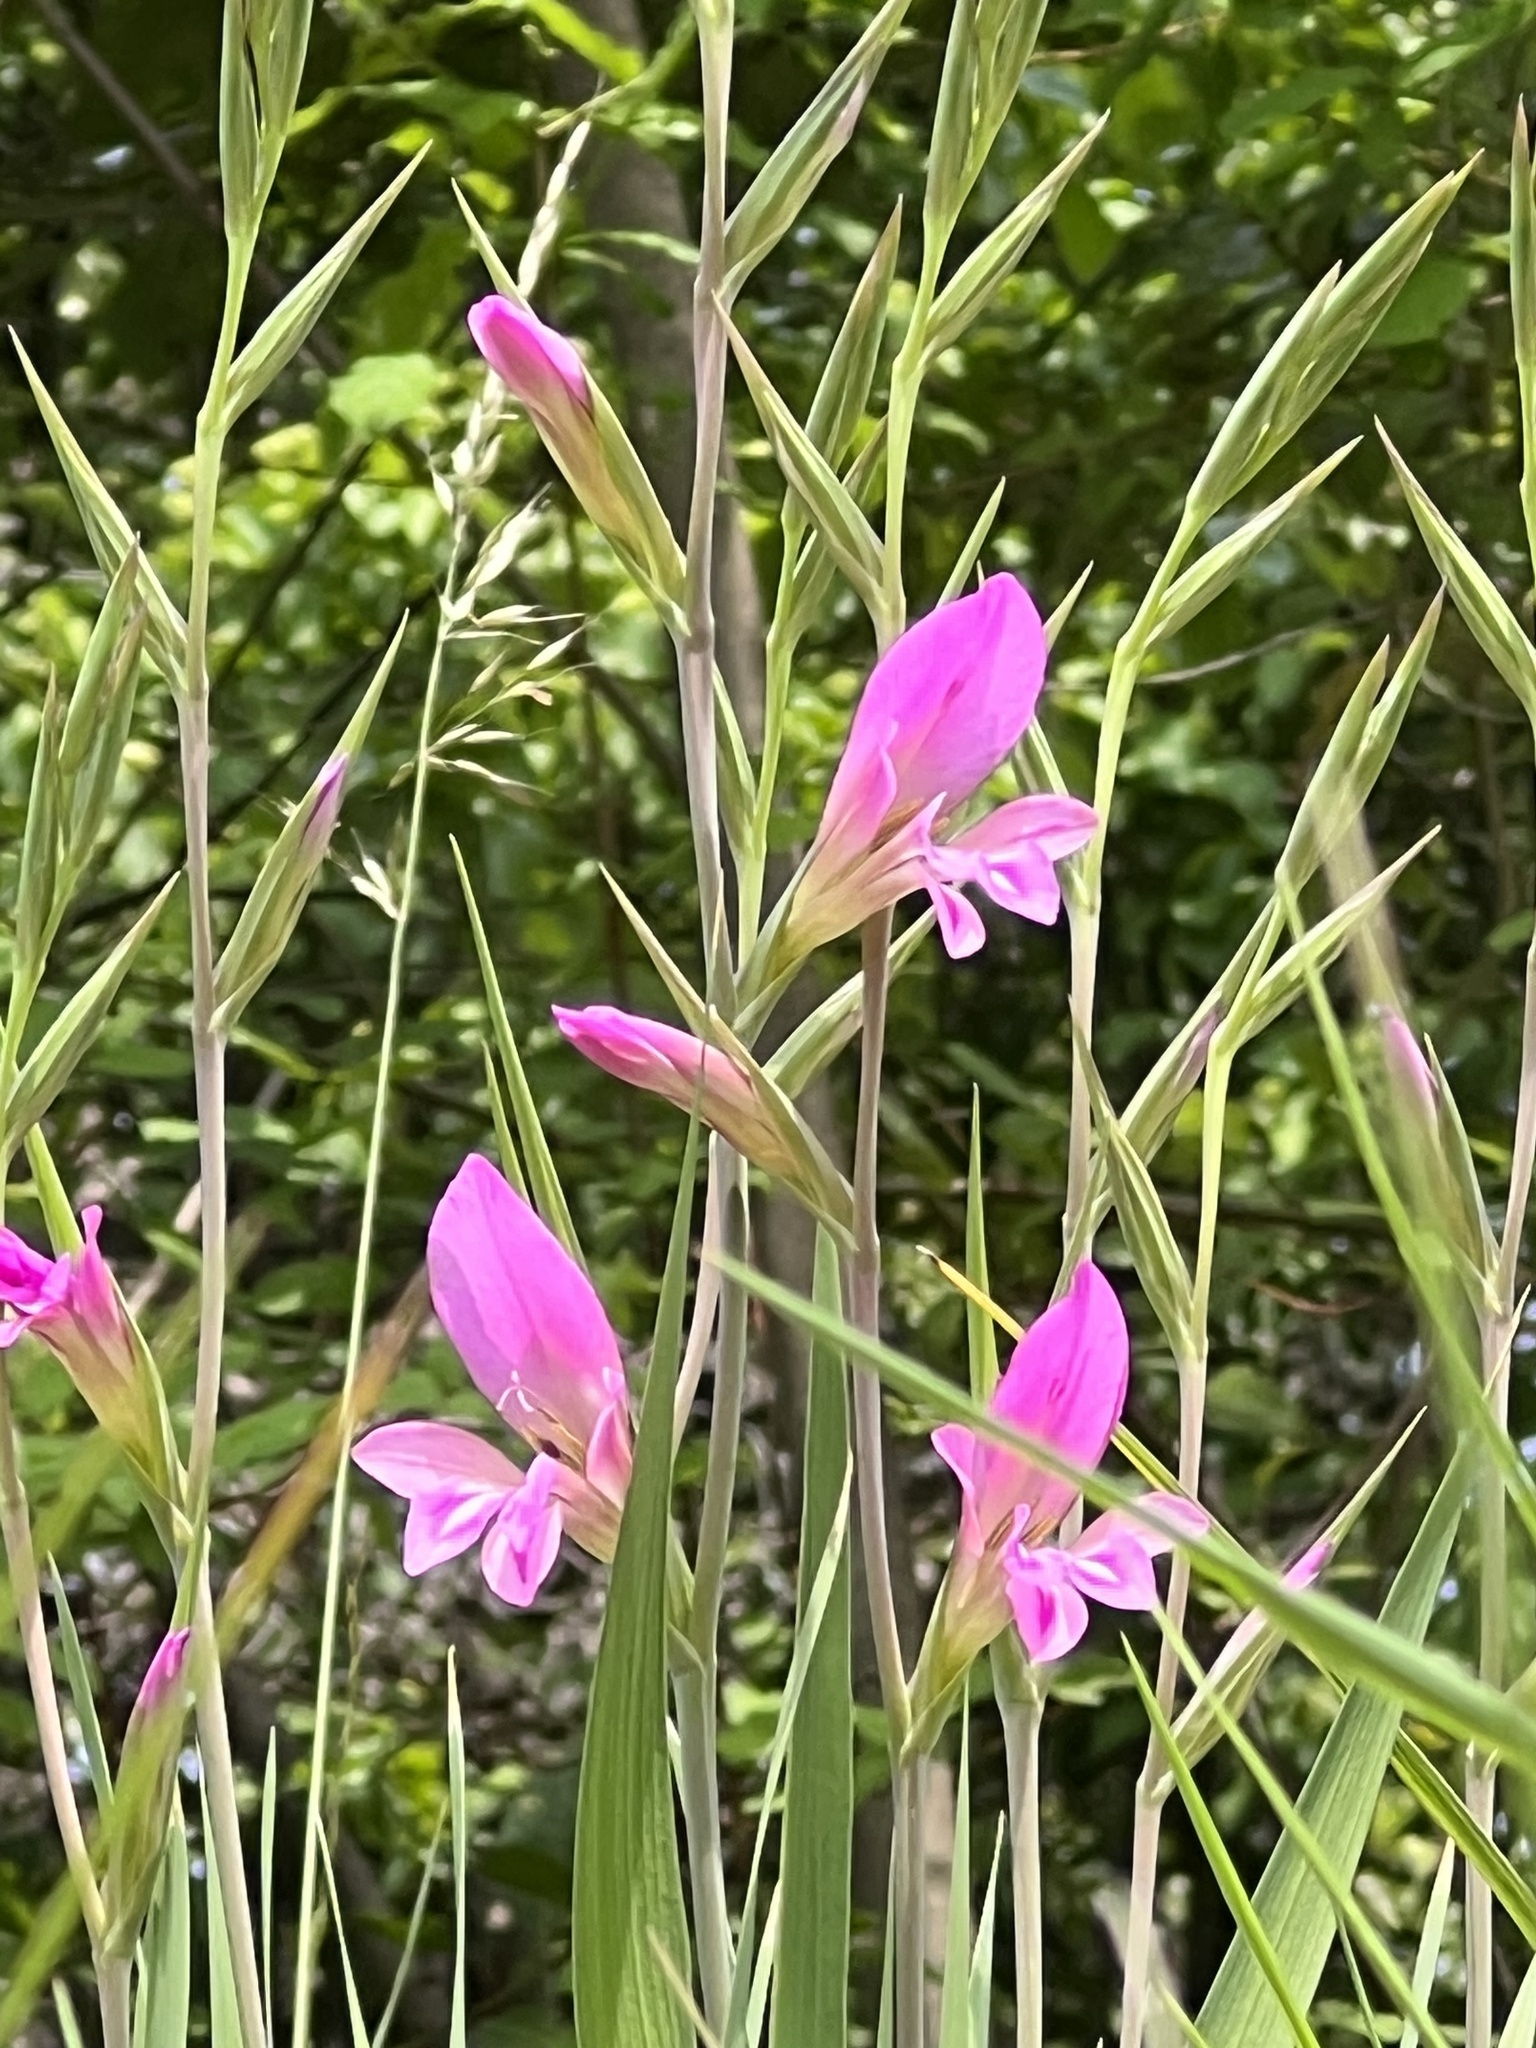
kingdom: Plantae
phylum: Tracheophyta
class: Liliopsida
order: Asparagales
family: Iridaceae
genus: Gladiolus
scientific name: Gladiolus italicus
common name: Field gladiolus
